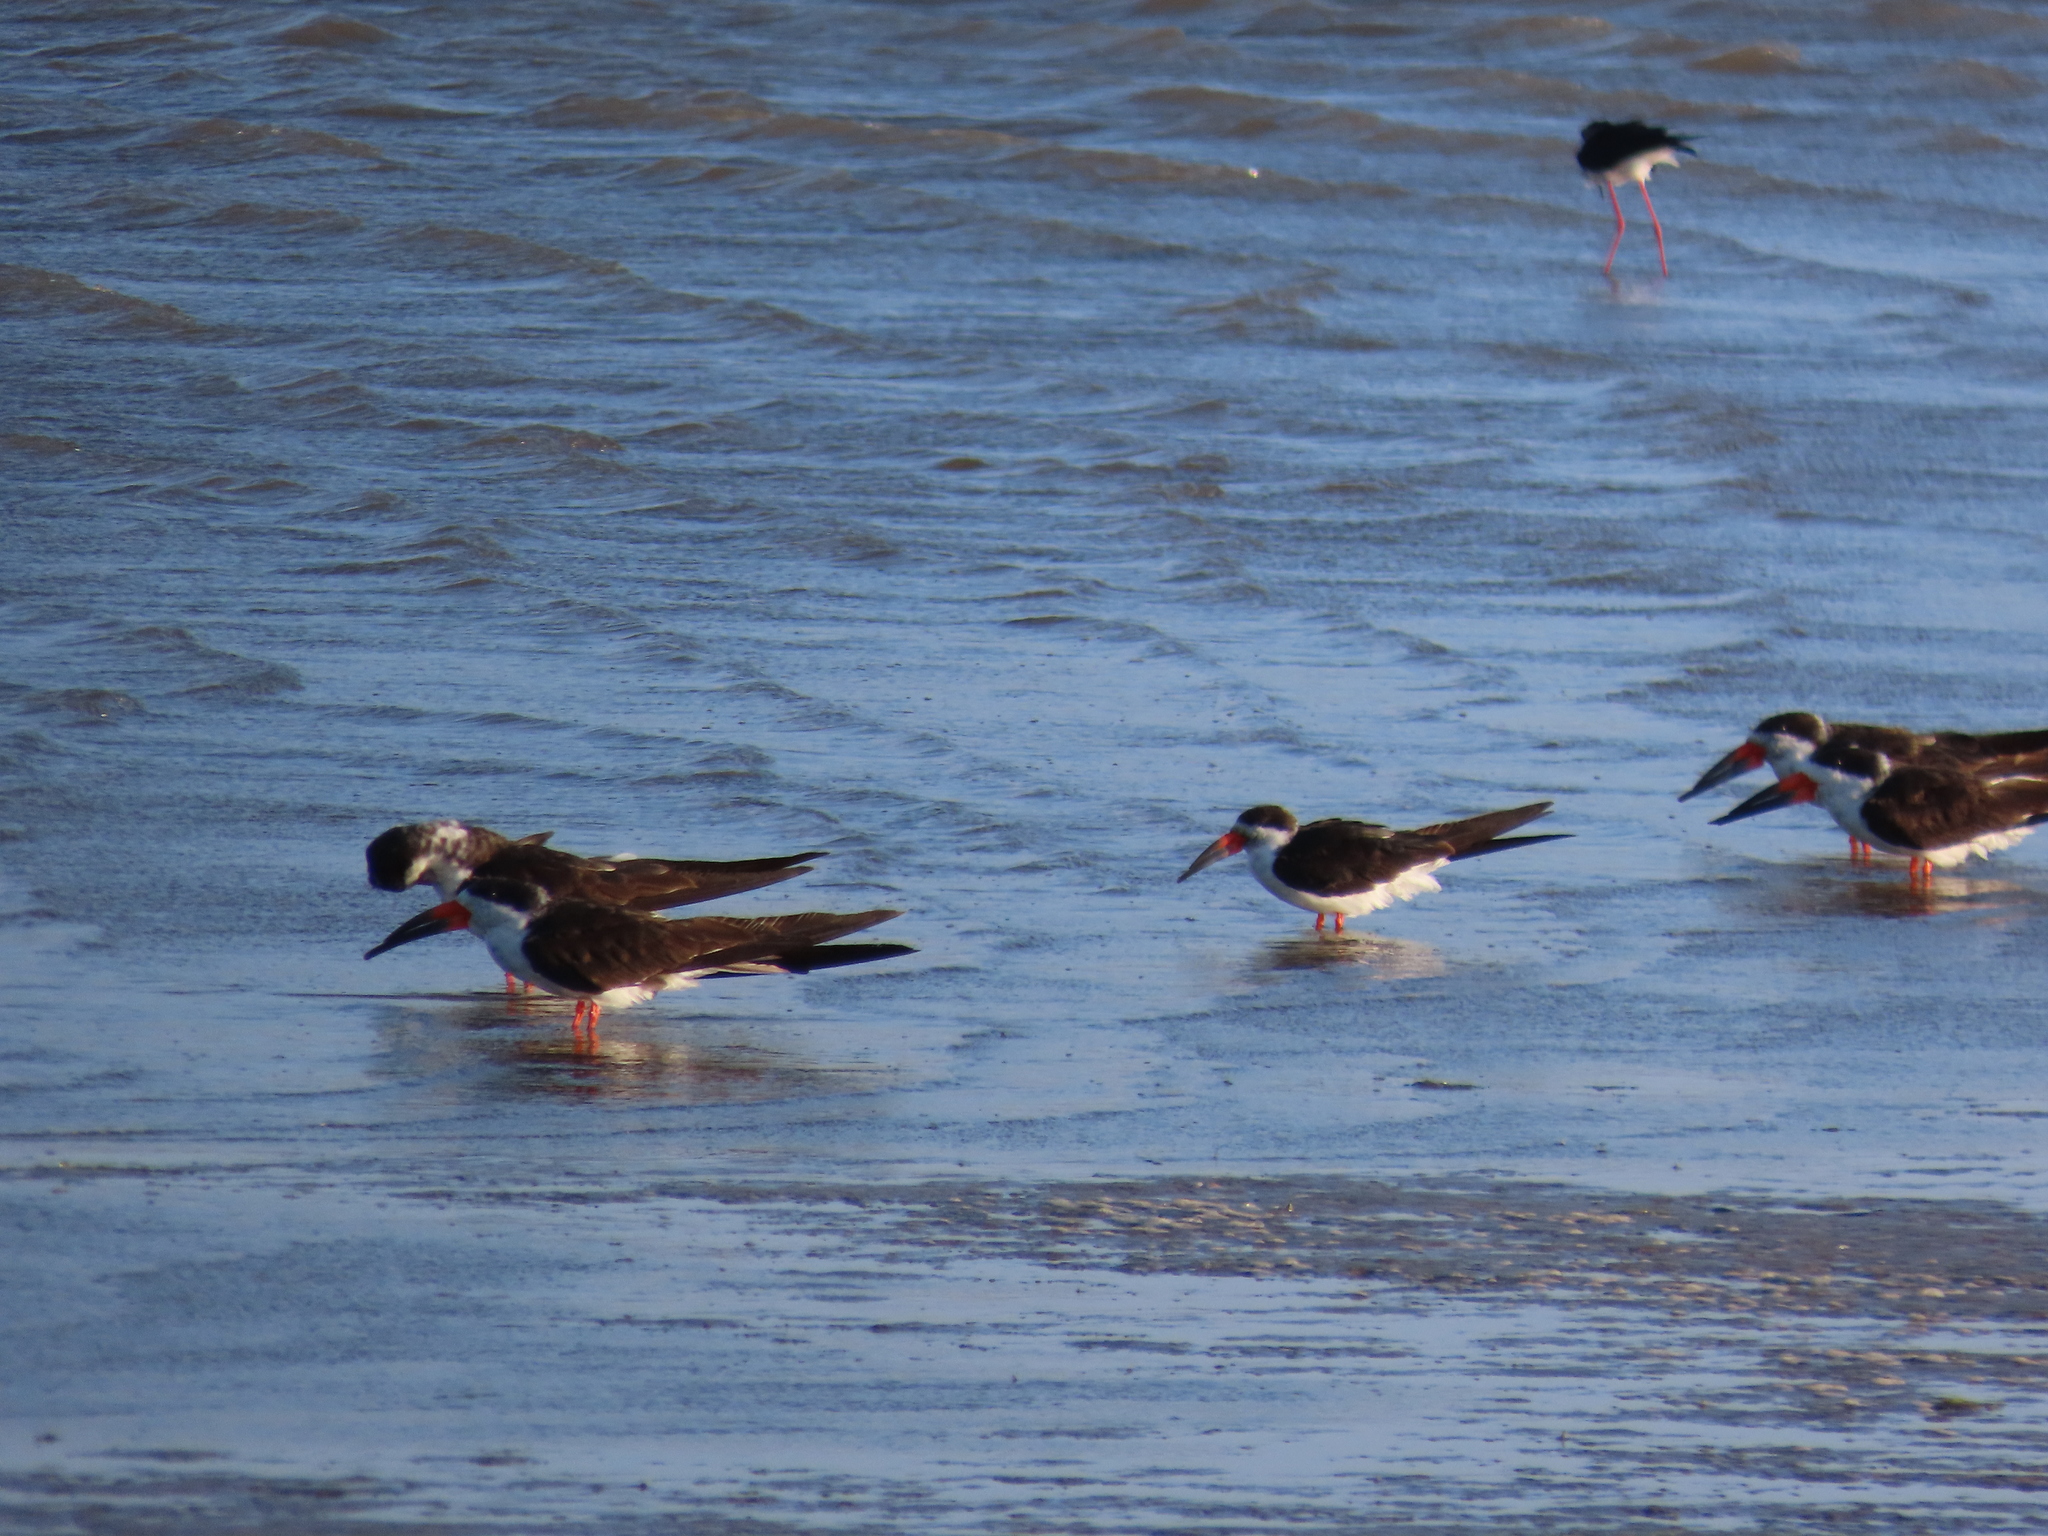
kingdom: Animalia
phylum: Chordata
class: Aves
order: Charadriiformes
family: Laridae
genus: Rynchops
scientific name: Rynchops niger
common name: Black skimmer
